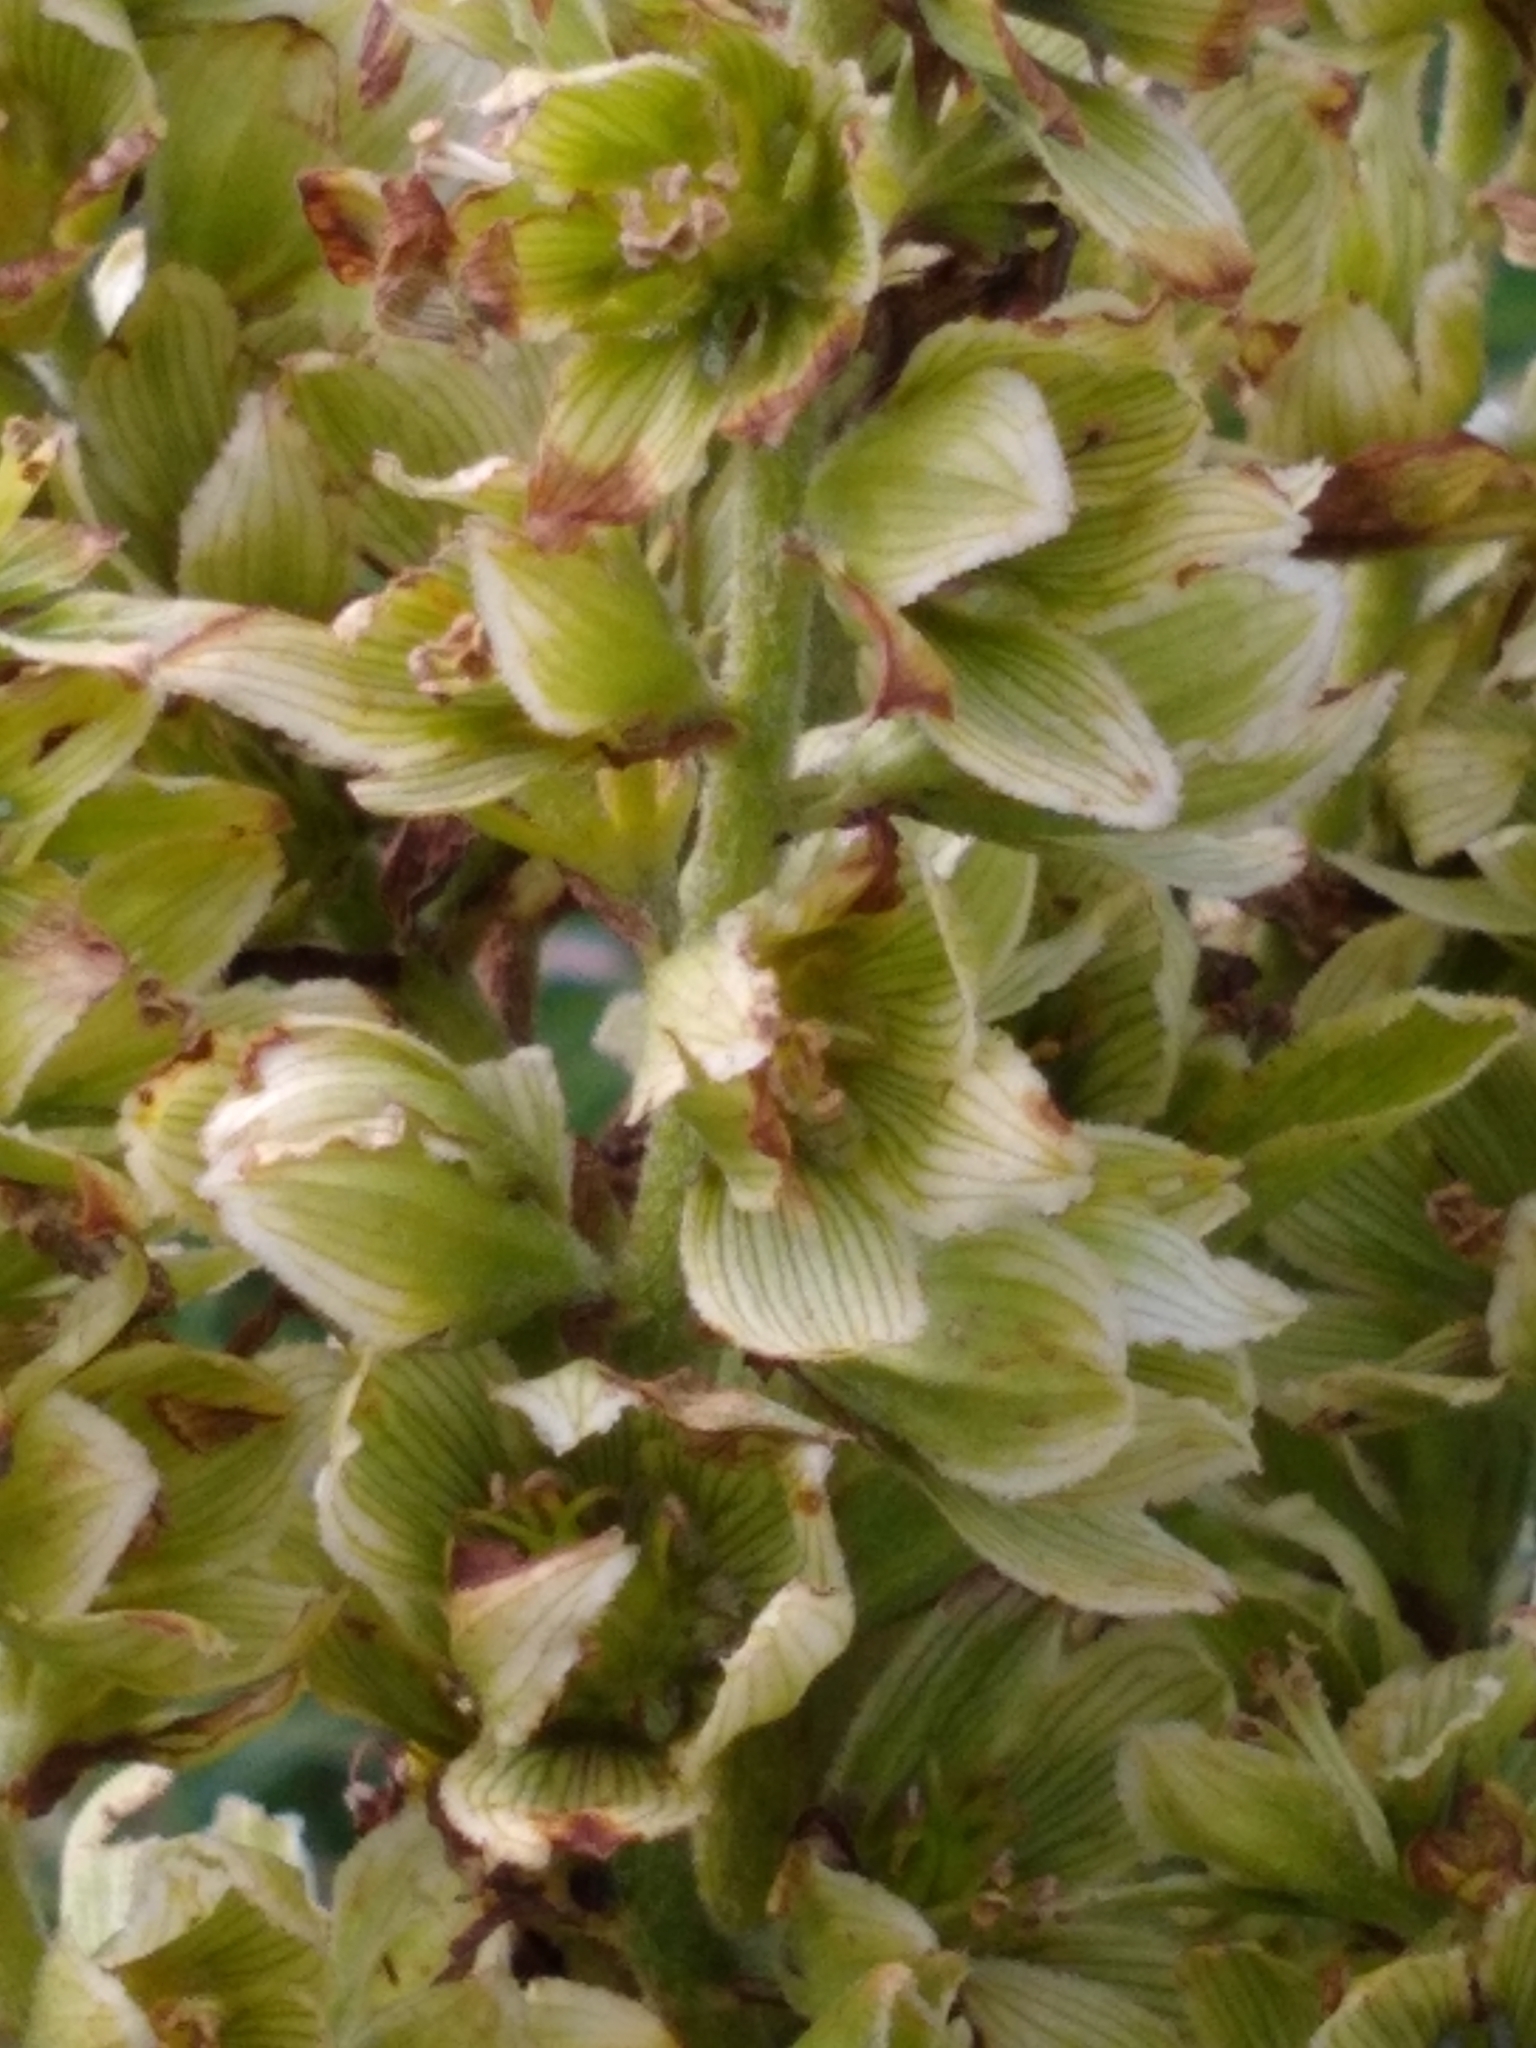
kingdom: Plantae
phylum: Tracheophyta
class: Liliopsida
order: Liliales
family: Melanthiaceae
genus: Veratrum
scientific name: Veratrum lobelianum
